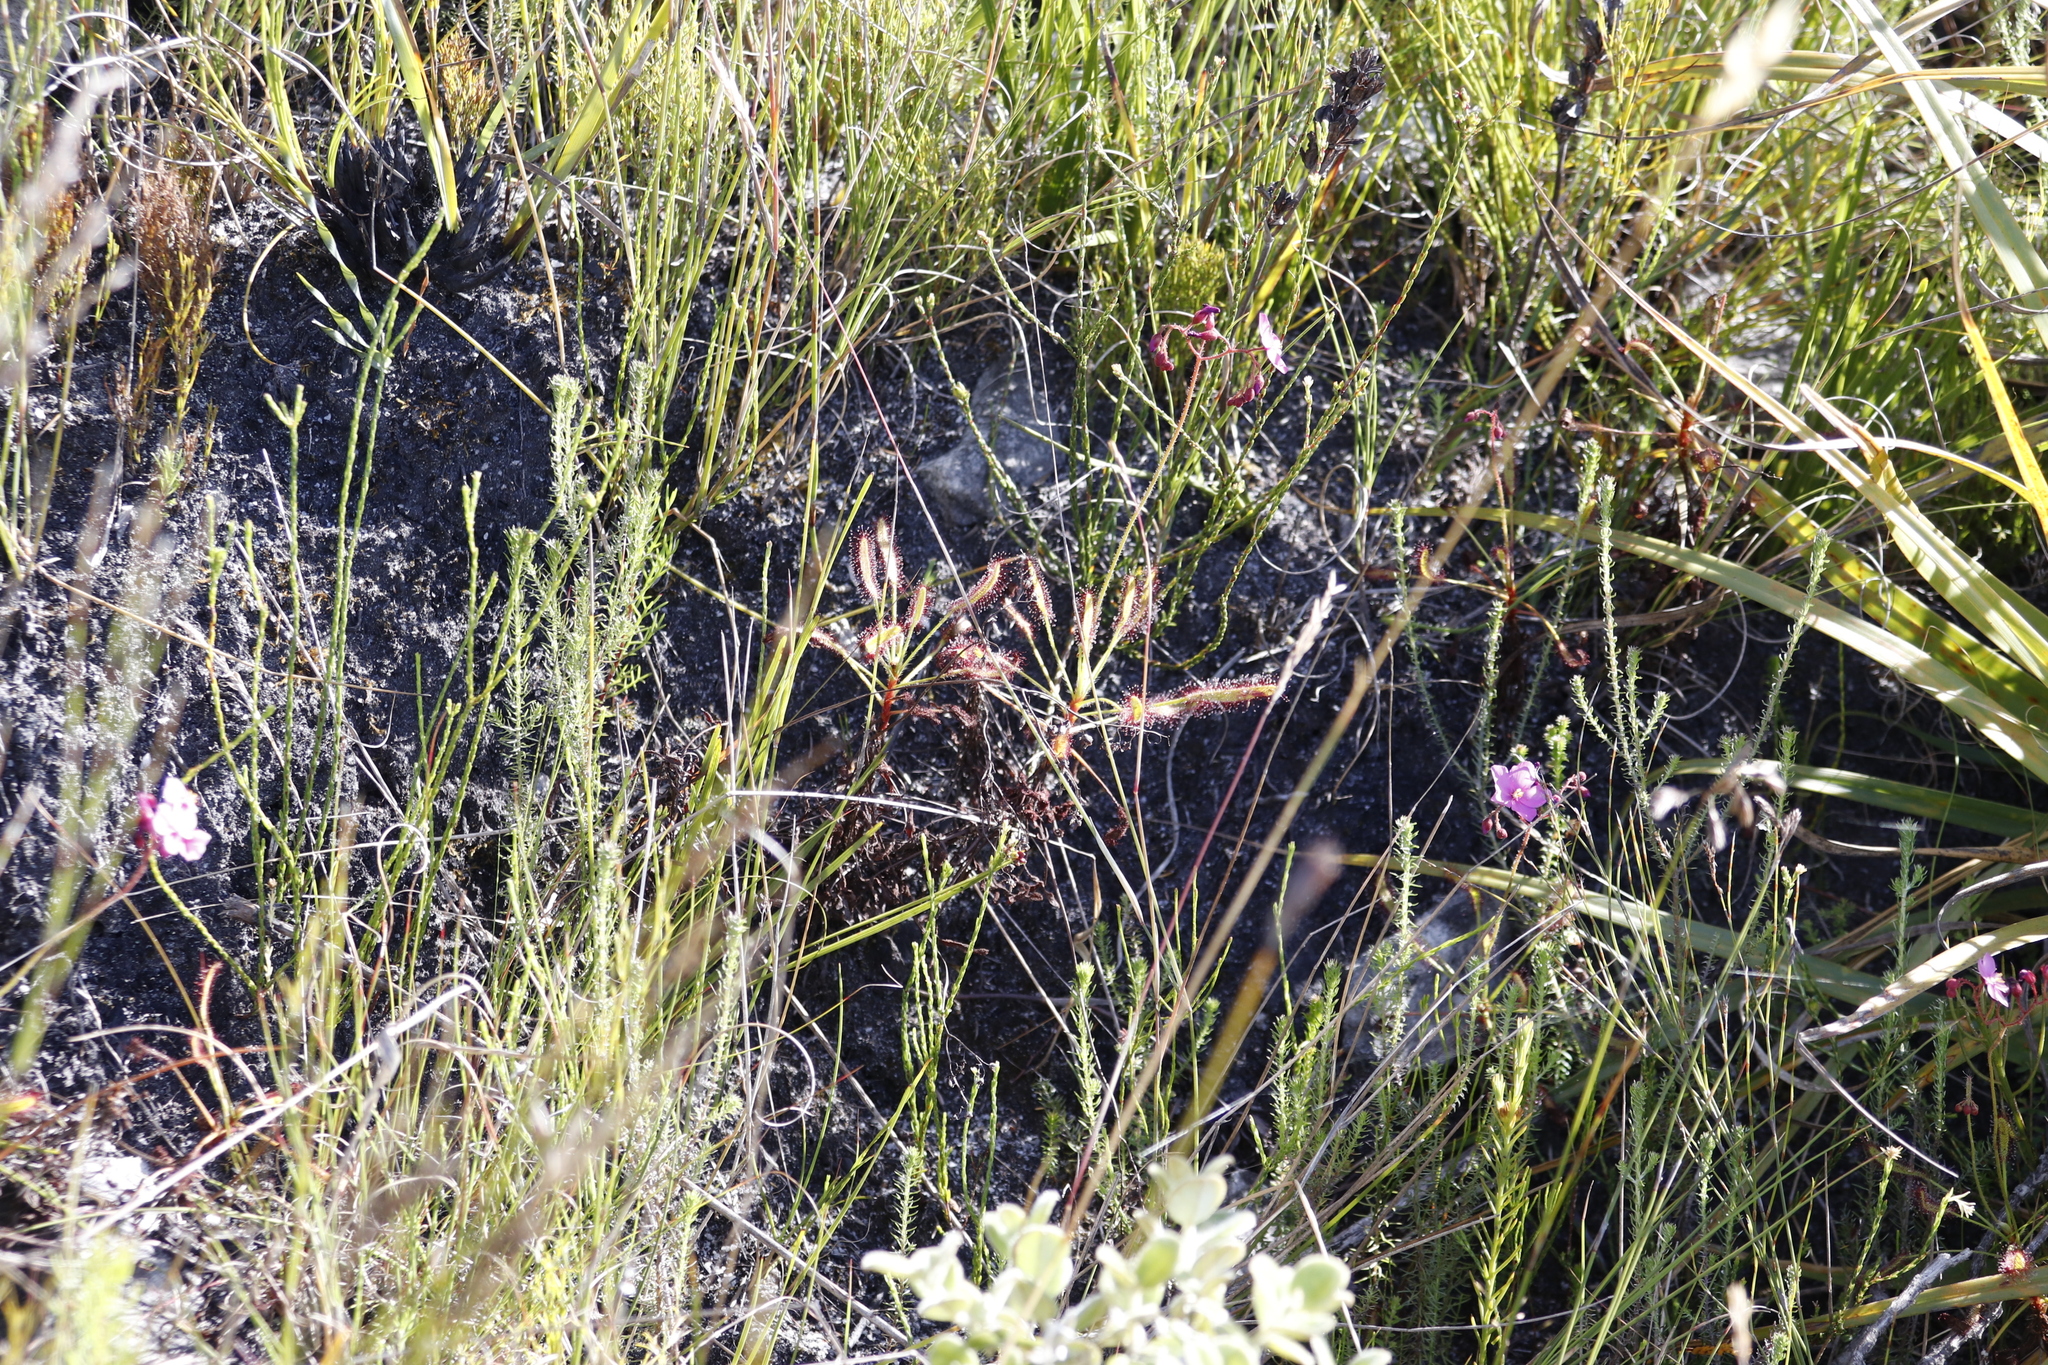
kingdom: Plantae
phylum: Tracheophyta
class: Magnoliopsida
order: Caryophyllales
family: Droseraceae
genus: Drosera
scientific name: Drosera ramentacea
